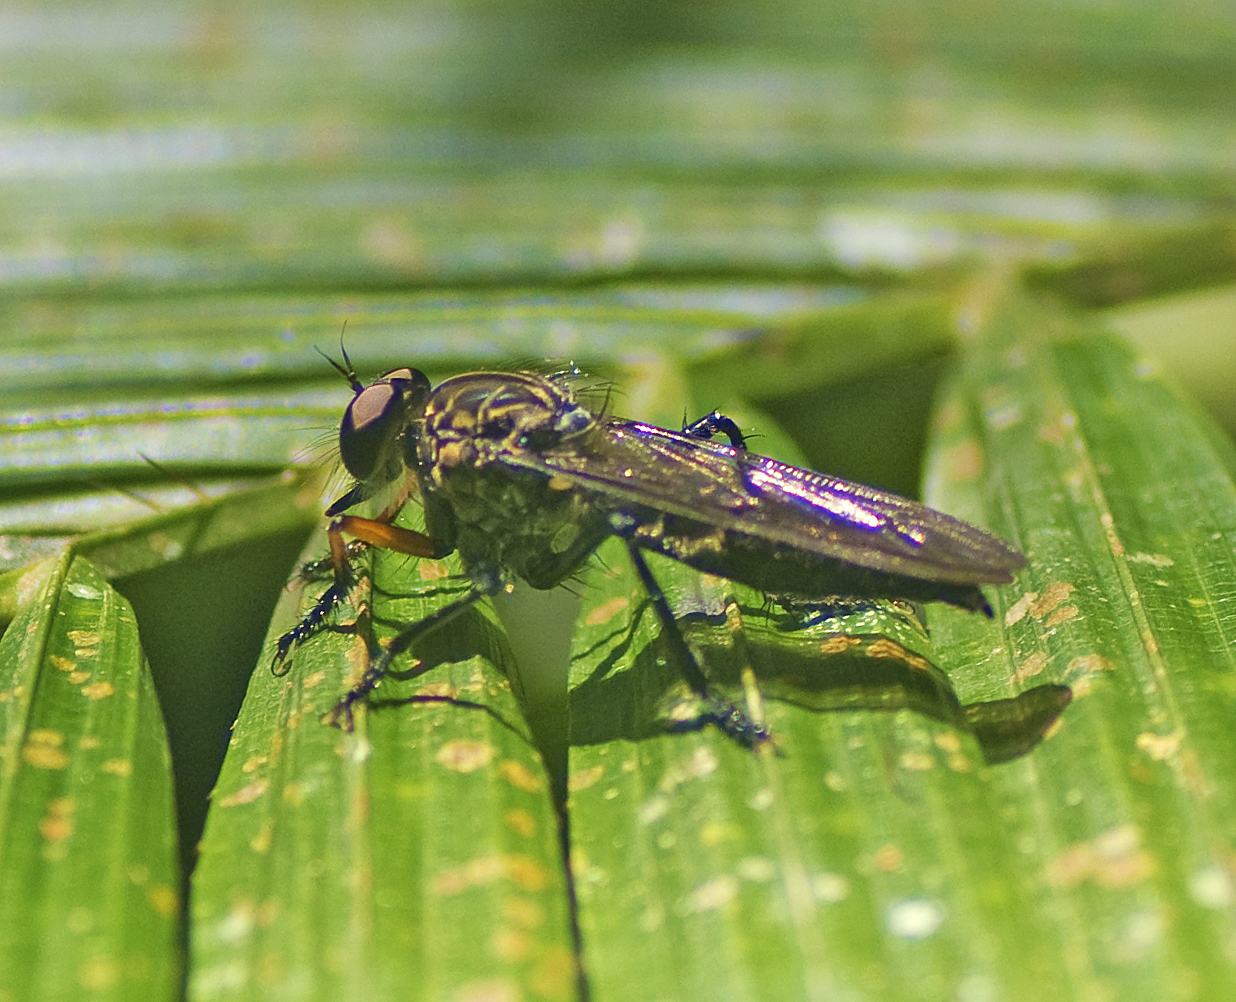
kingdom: Animalia
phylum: Arthropoda
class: Insecta
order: Diptera
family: Asilidae
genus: Colepia
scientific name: Colepia compernis
